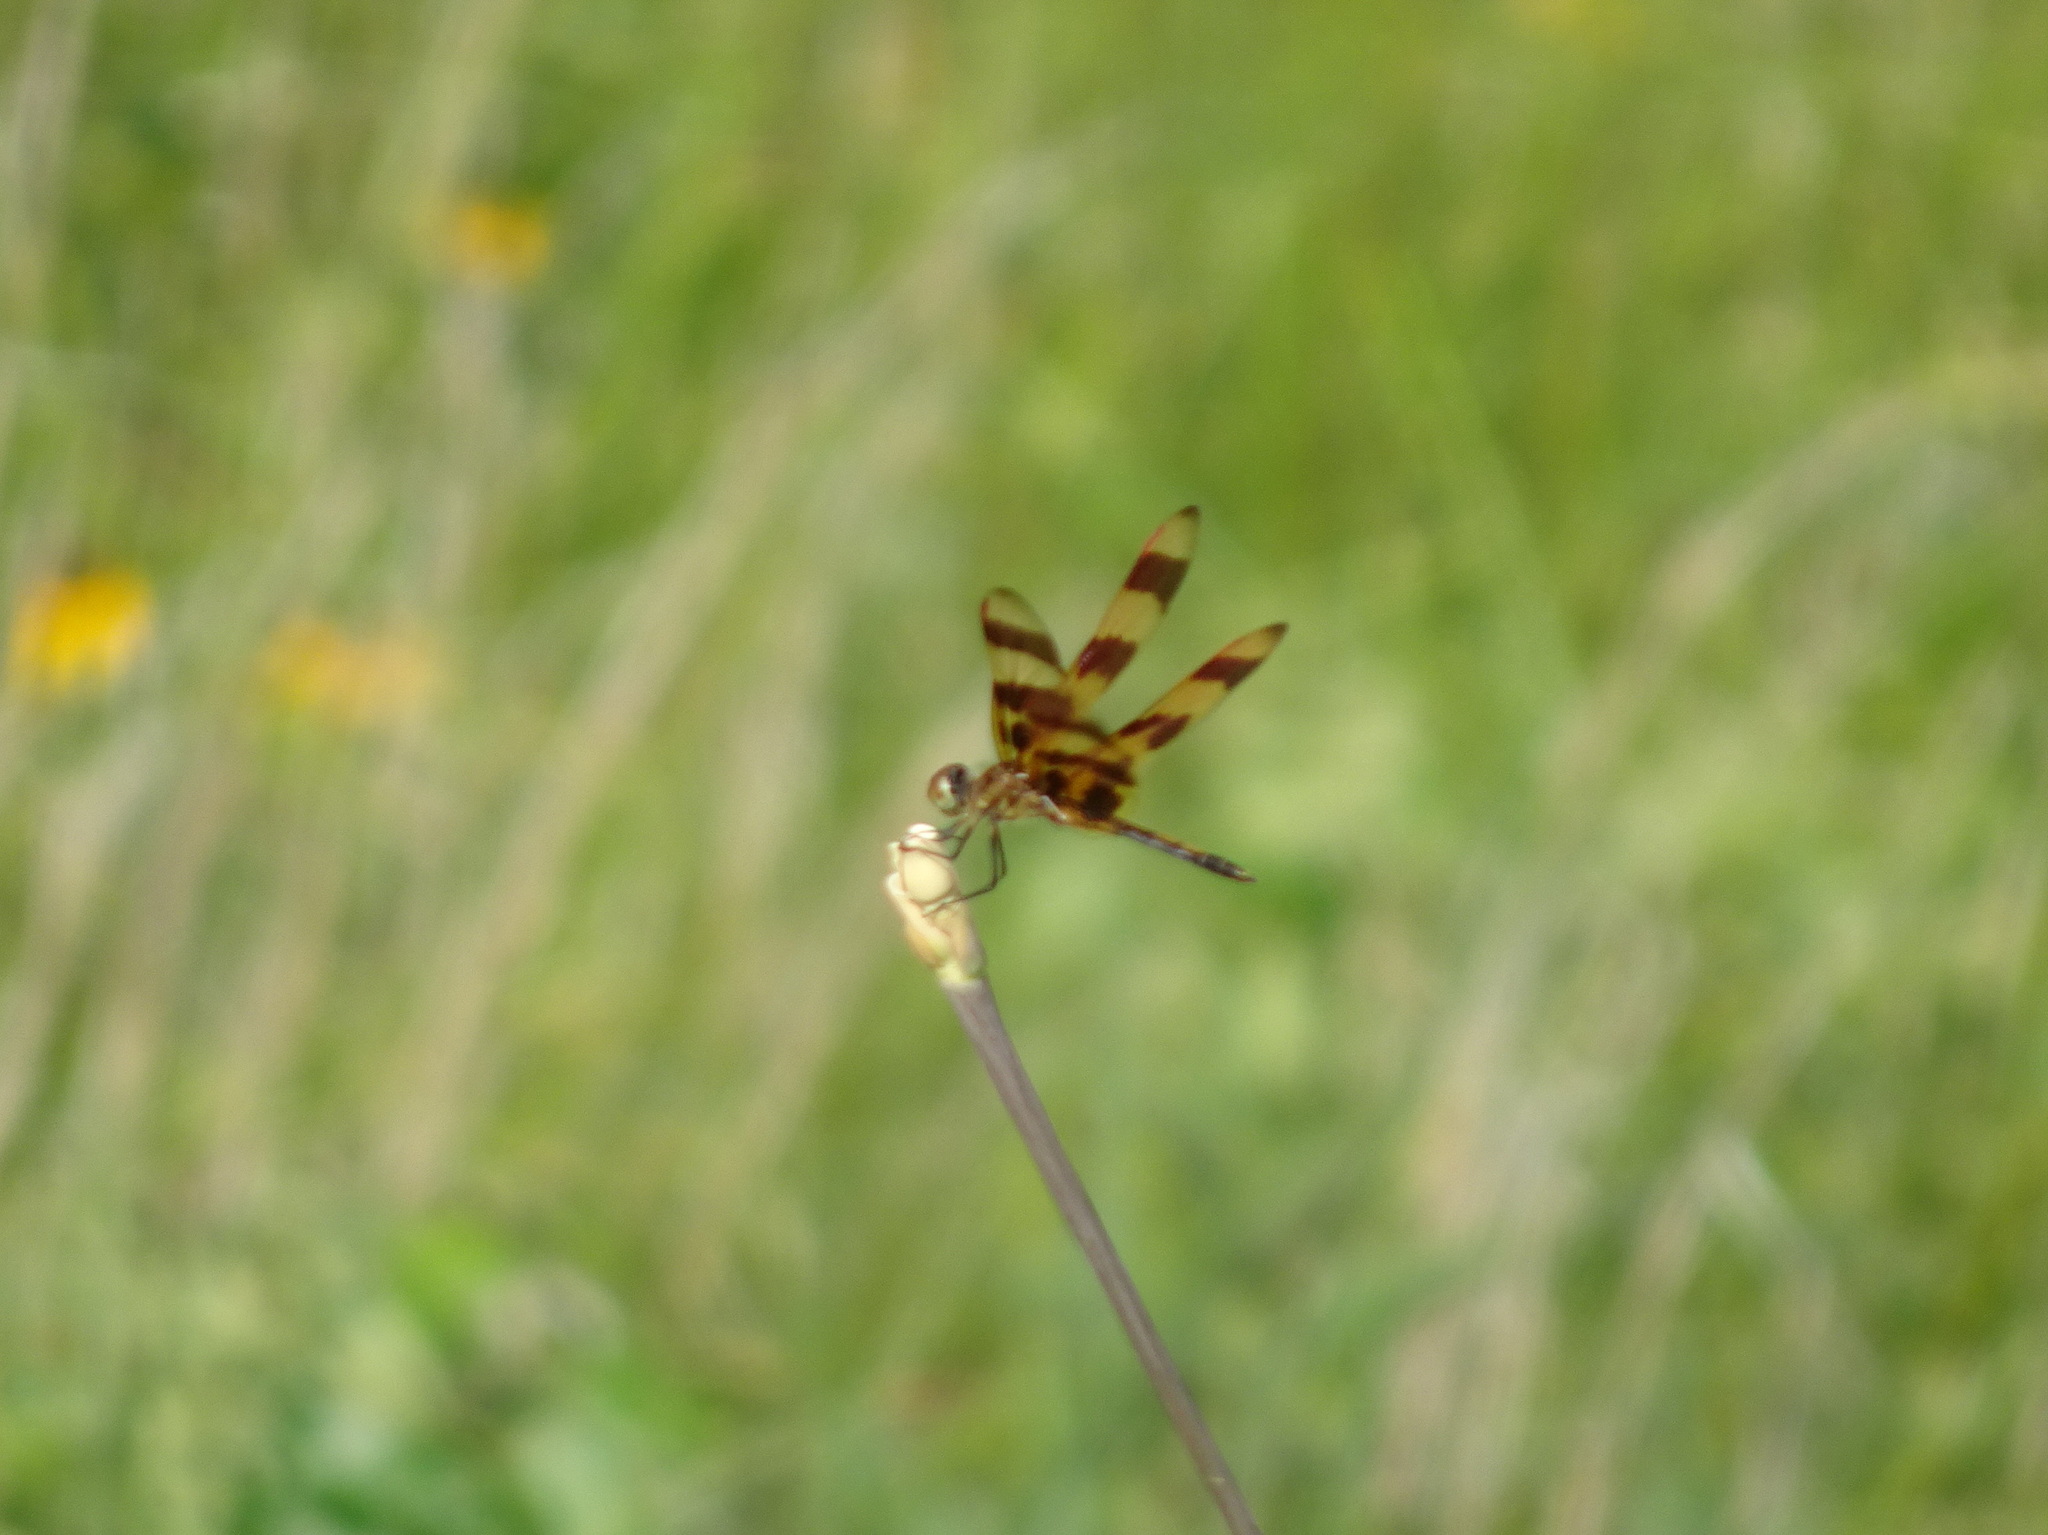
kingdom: Animalia
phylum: Arthropoda
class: Insecta
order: Odonata
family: Libellulidae
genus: Celithemis
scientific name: Celithemis eponina
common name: Halloween pennant
